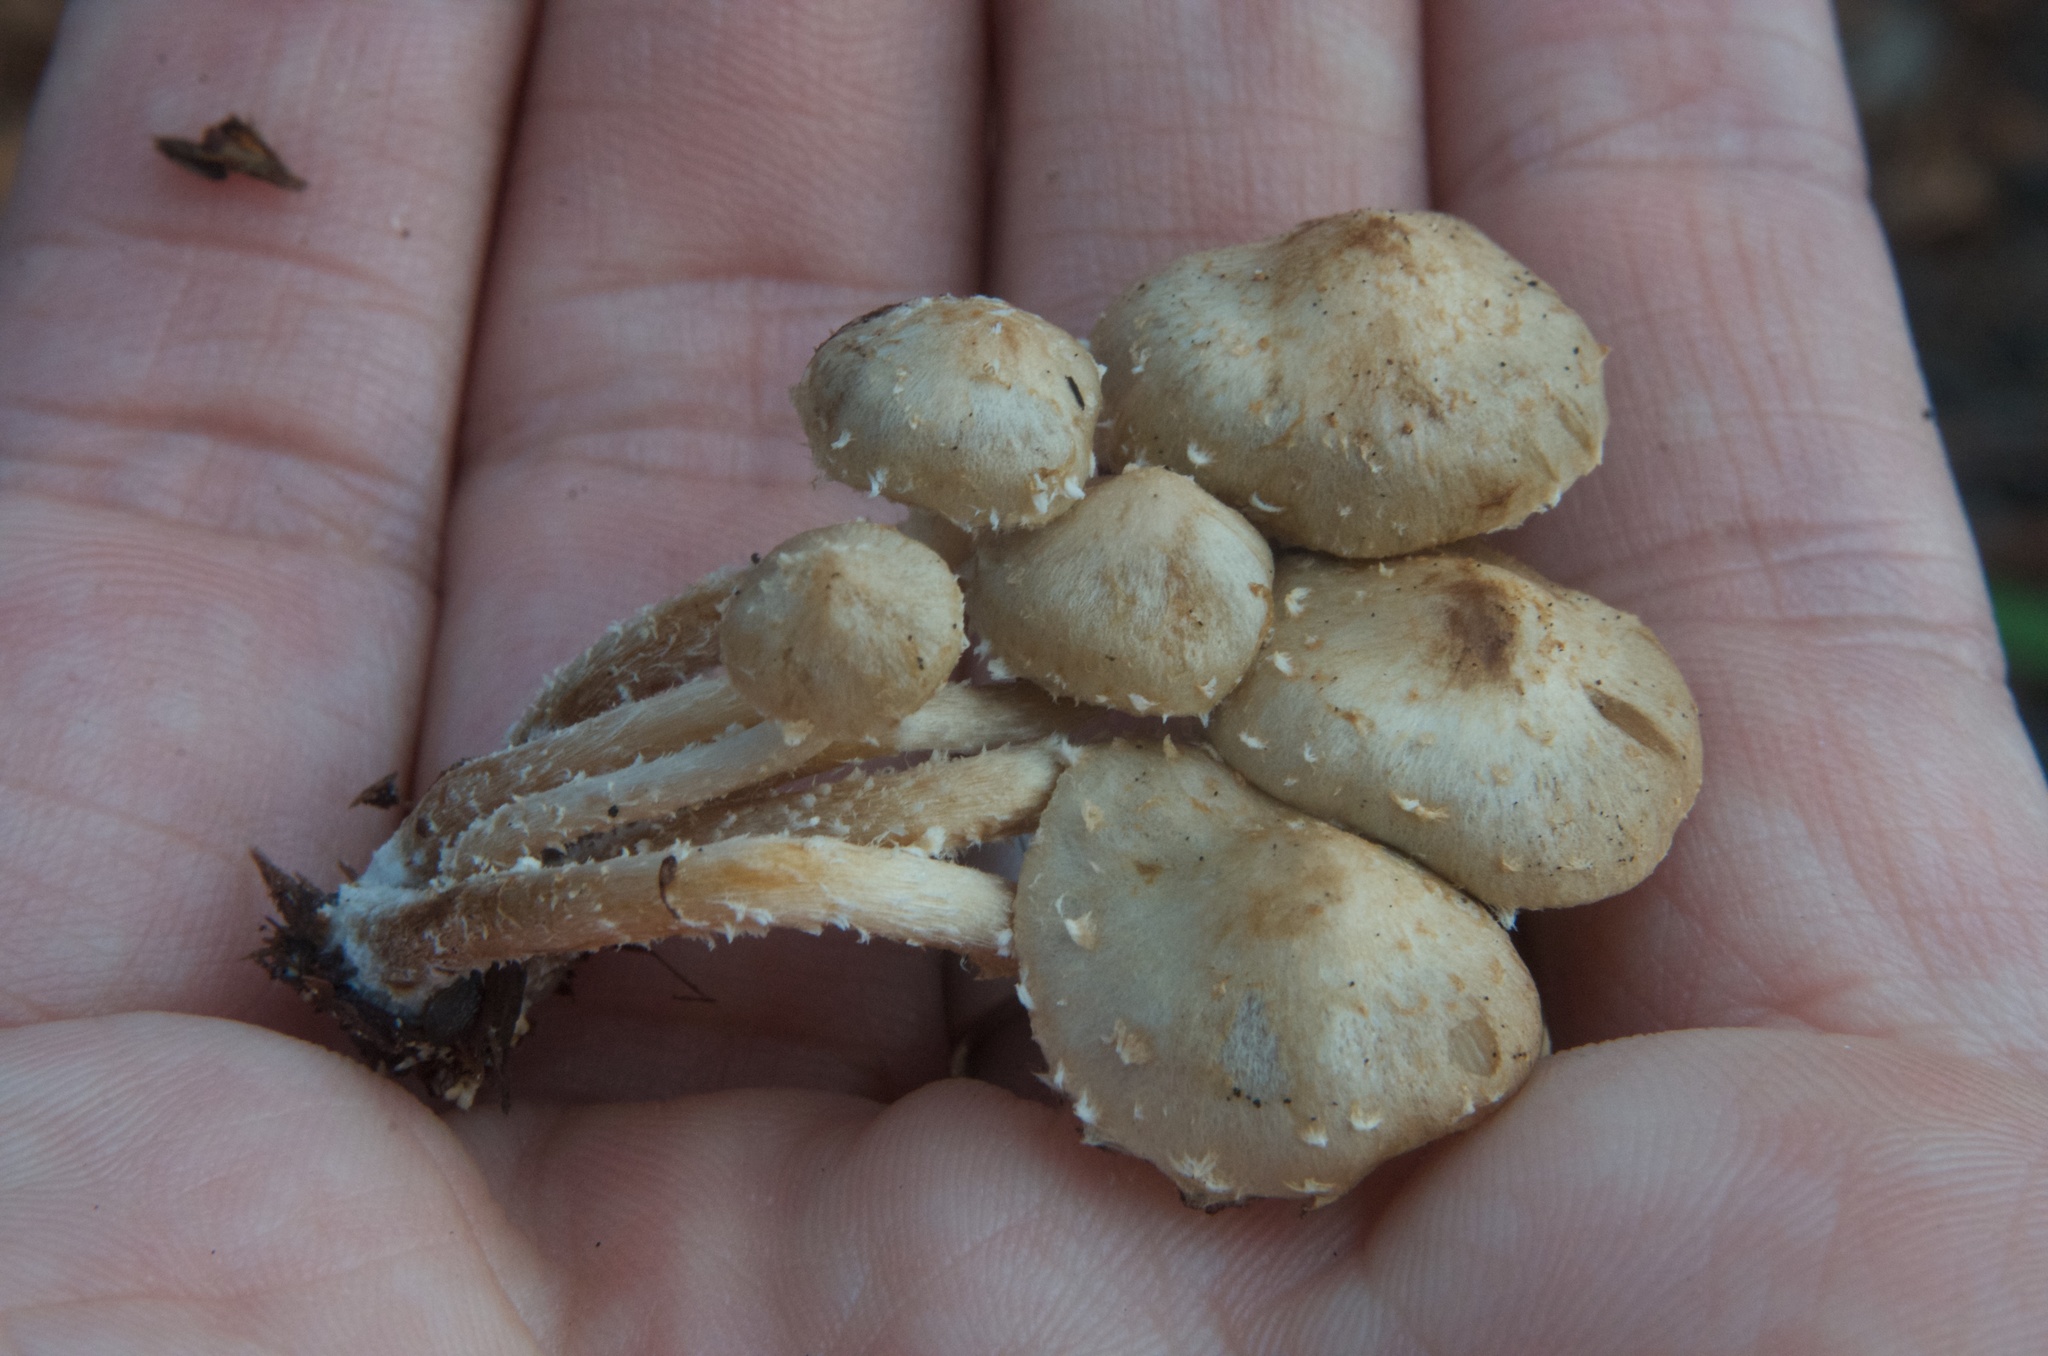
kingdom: Fungi
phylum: Basidiomycota
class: Agaricomycetes
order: Agaricales
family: Strophariaceae
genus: Pholiota
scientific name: Pholiota subflammans
